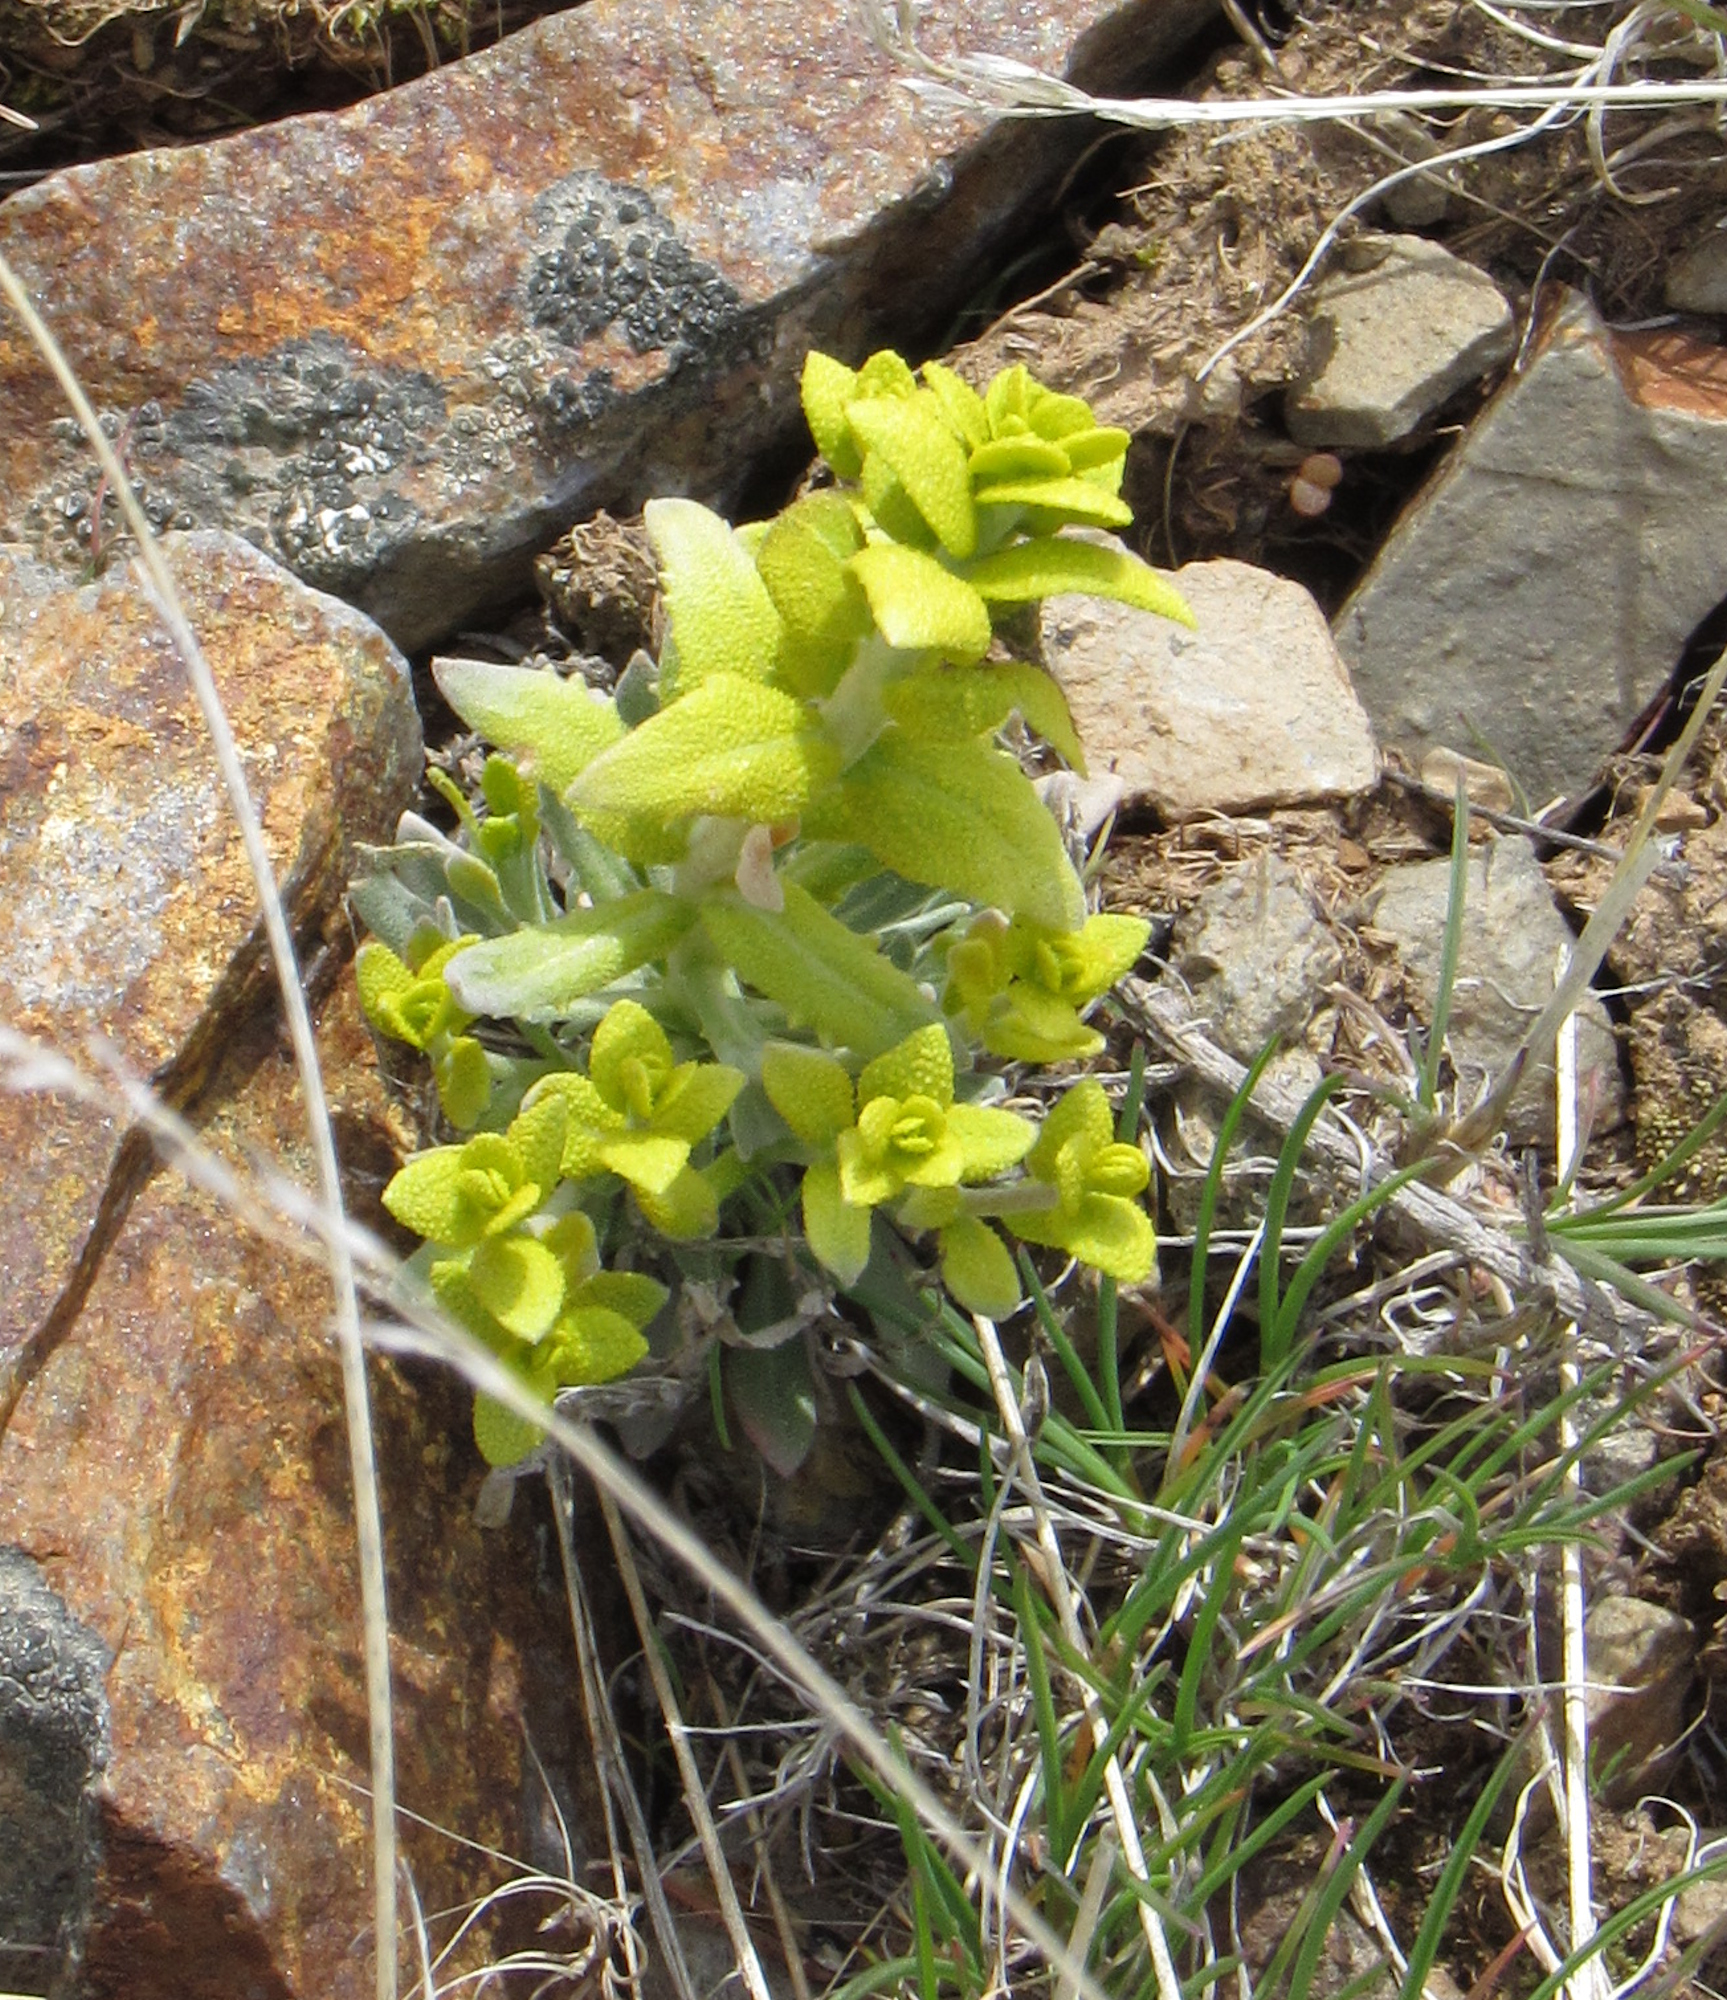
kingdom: Fungi
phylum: Basidiomycota
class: Pucciniomycetes
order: Pucciniales
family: Pucciniaceae
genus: Puccinia
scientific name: Puccinia monoica
